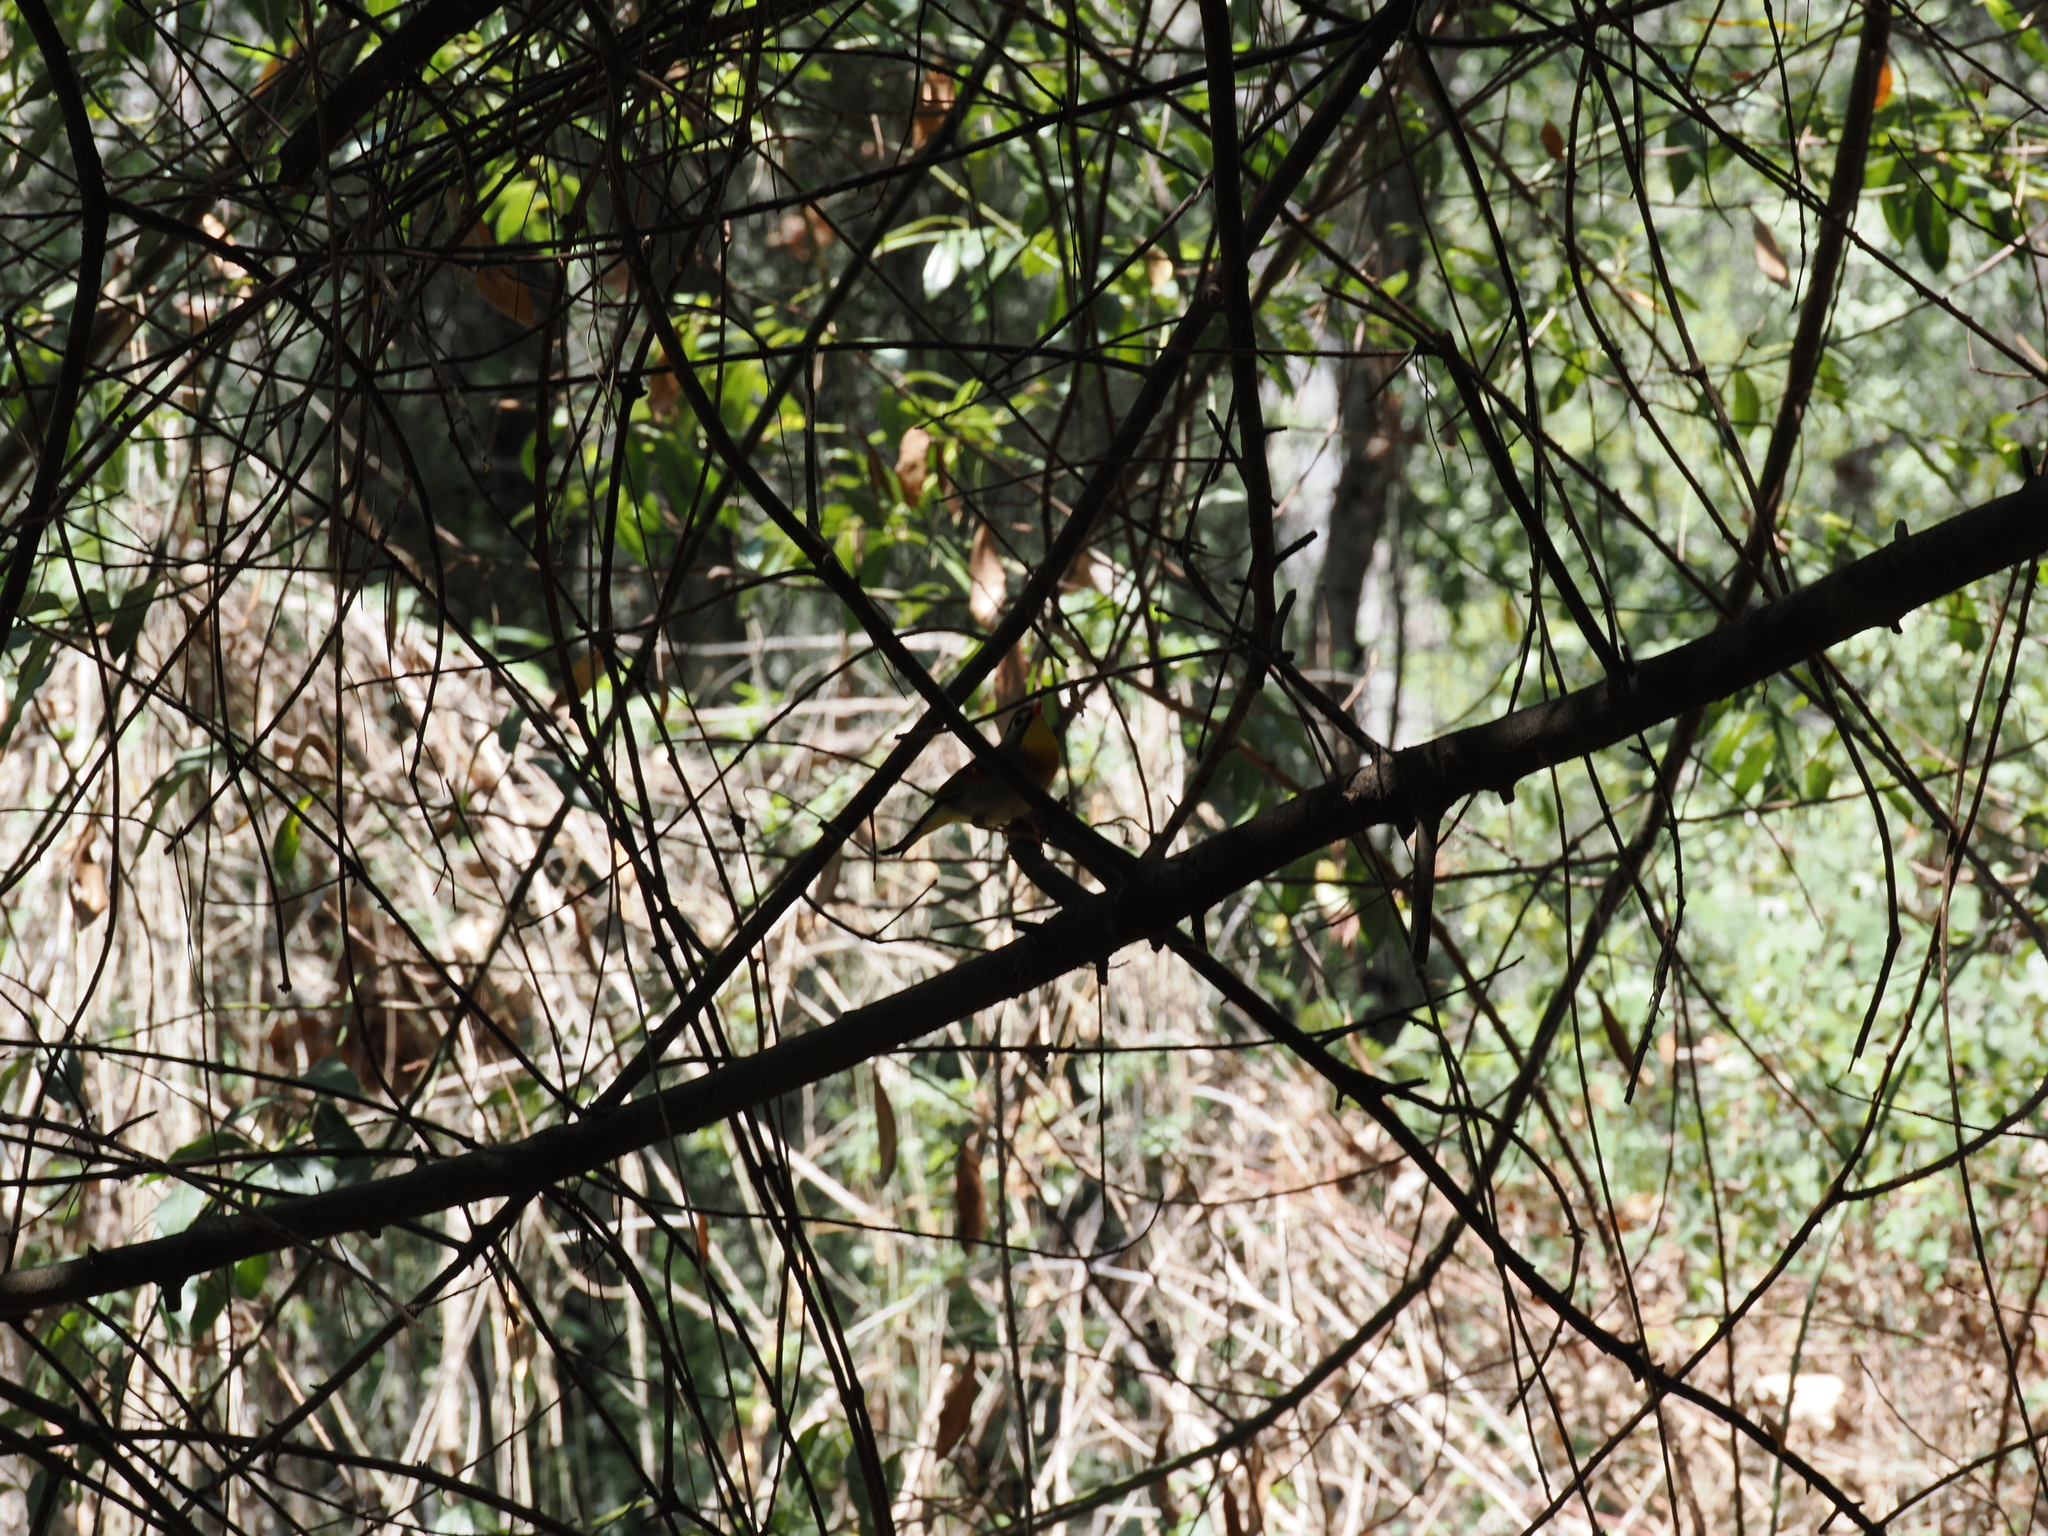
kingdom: Animalia
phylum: Chordata
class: Aves
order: Passeriformes
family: Leiothrichidae
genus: Leiothrix
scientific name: Leiothrix lutea
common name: Red-billed leiothrix
